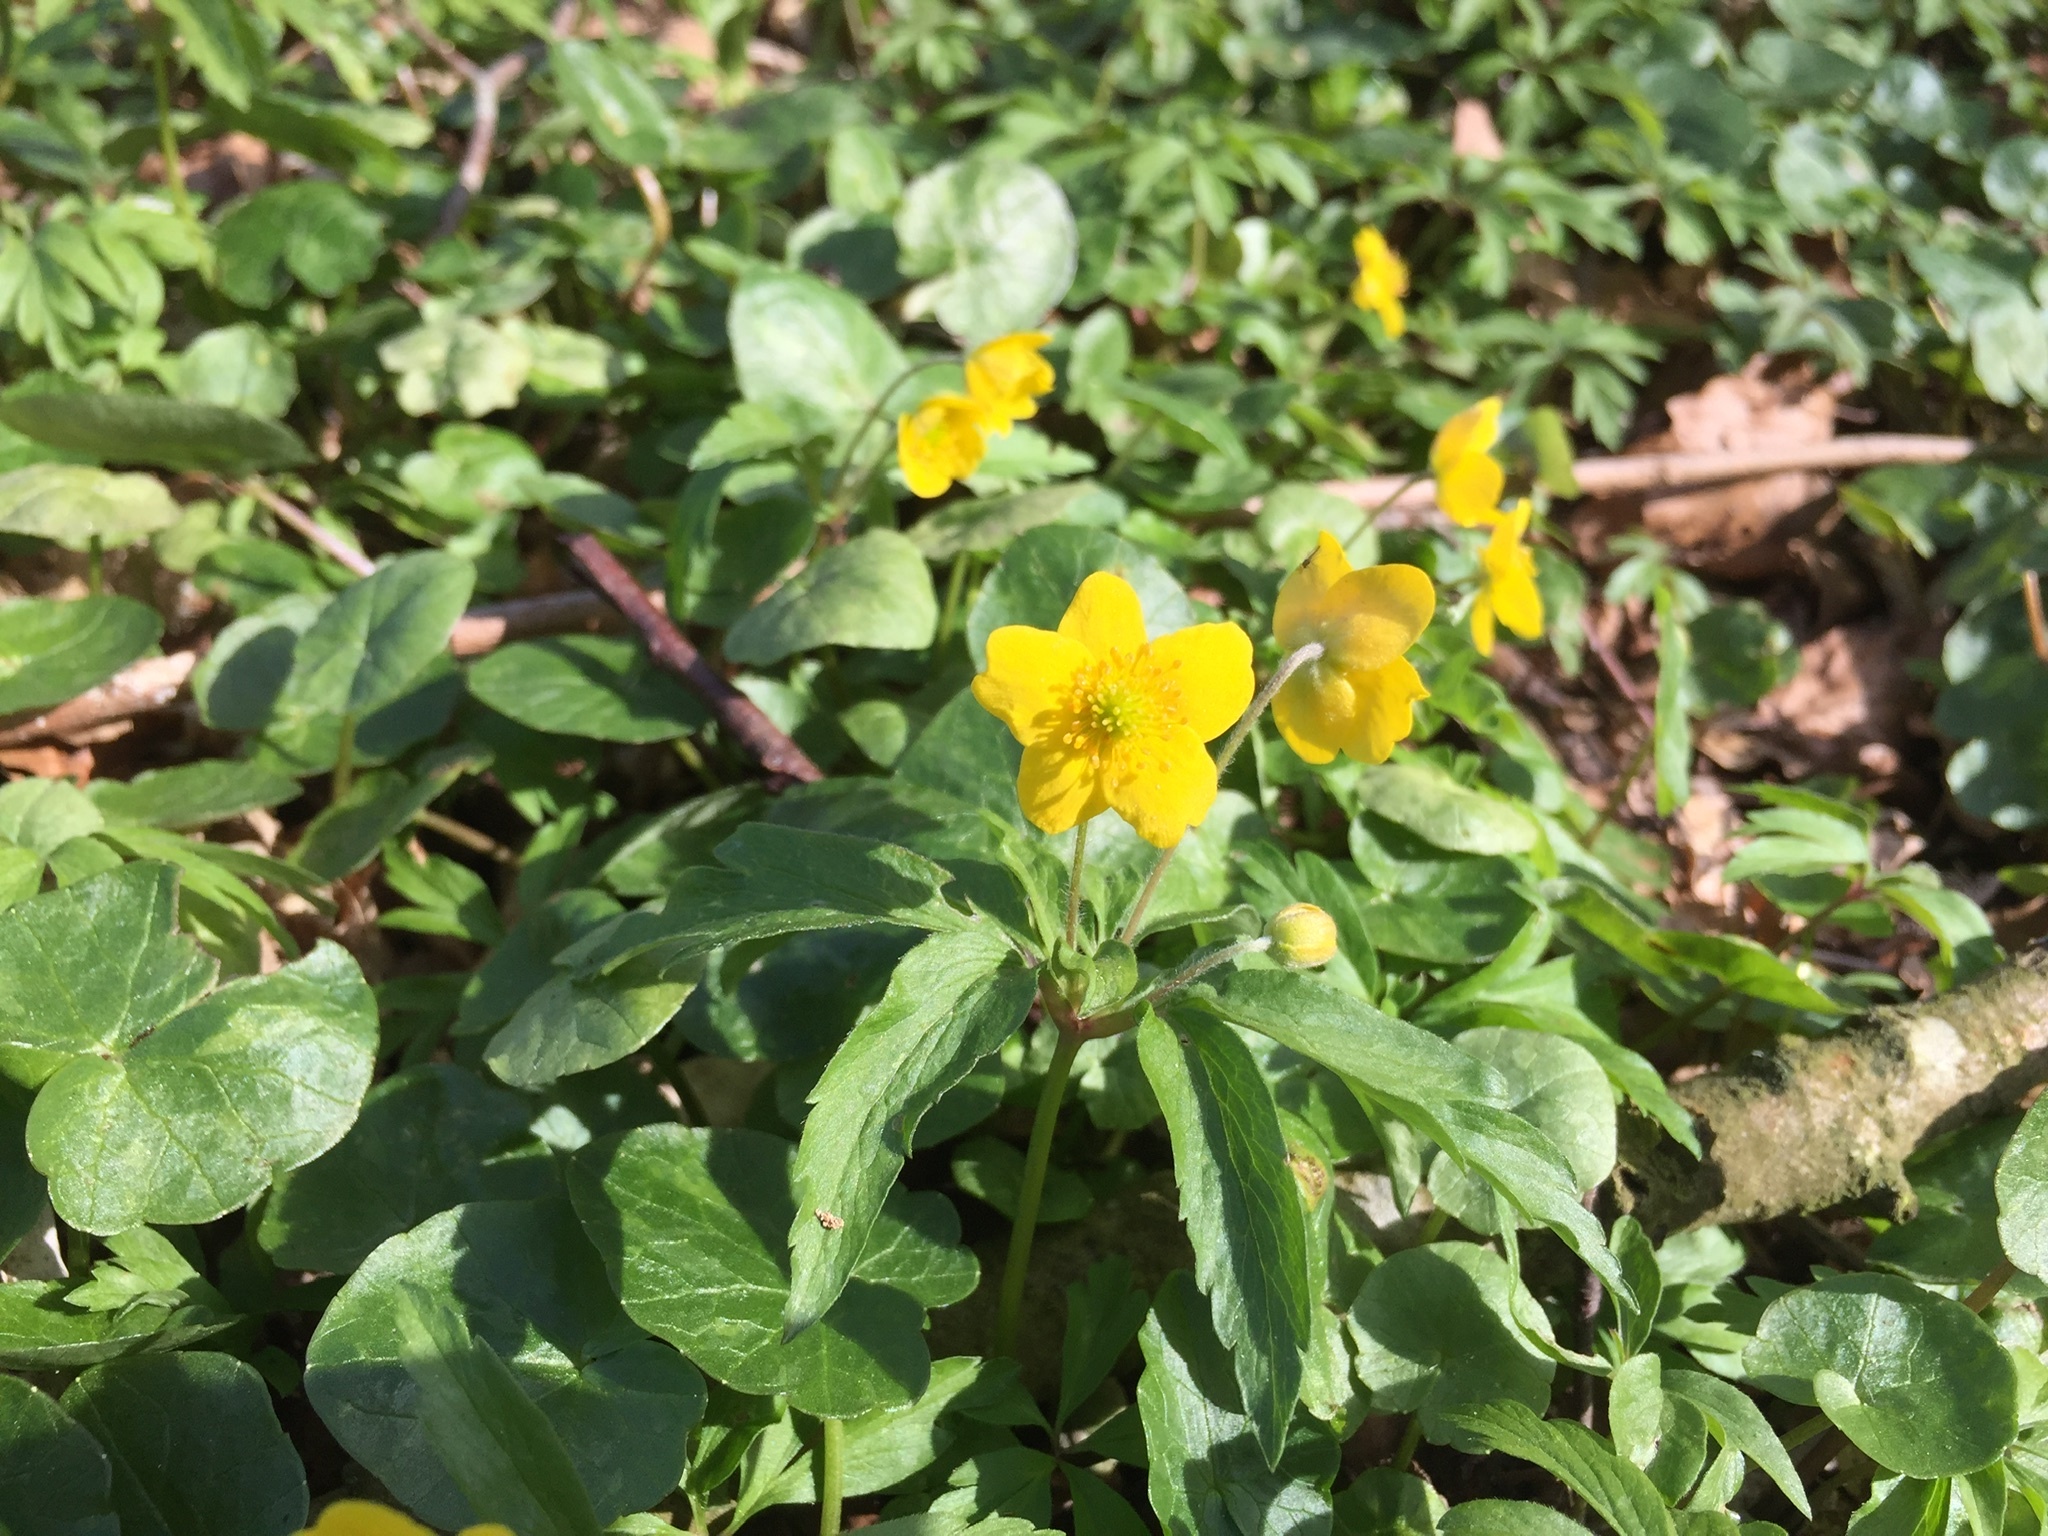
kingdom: Plantae
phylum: Tracheophyta
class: Magnoliopsida
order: Ranunculales
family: Ranunculaceae
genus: Anemone
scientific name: Anemone ranunculoides
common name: Yellow anemone
